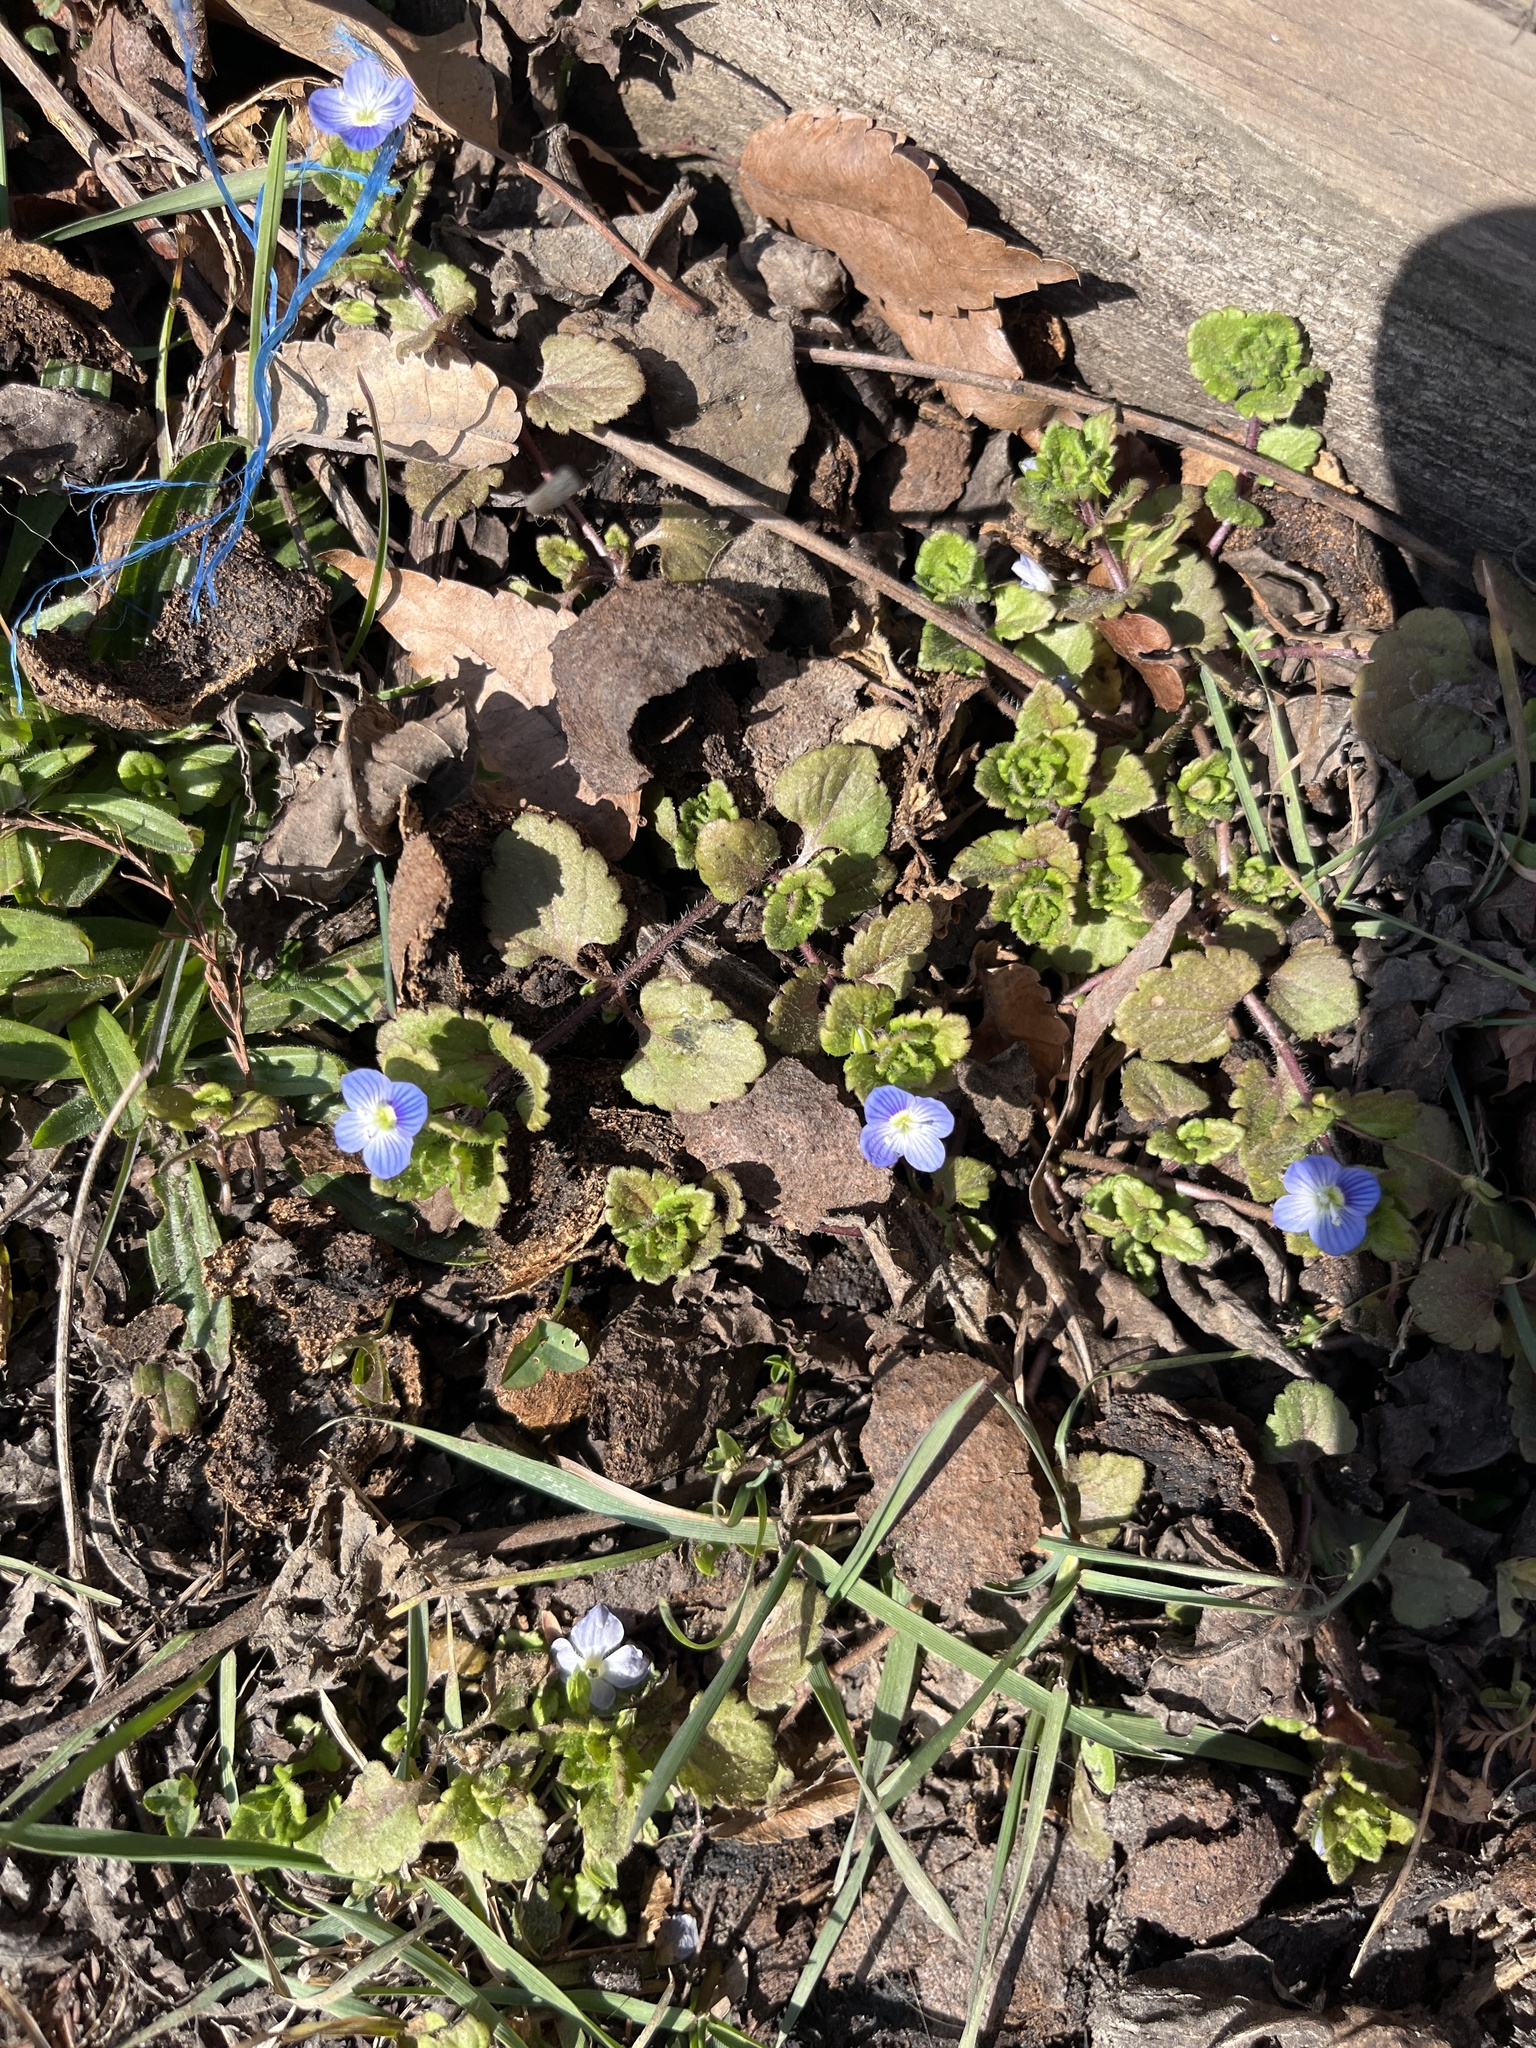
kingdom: Plantae
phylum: Tracheophyta
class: Magnoliopsida
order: Lamiales
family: Plantaginaceae
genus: Veronica
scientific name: Veronica persica
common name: Common field-speedwell
